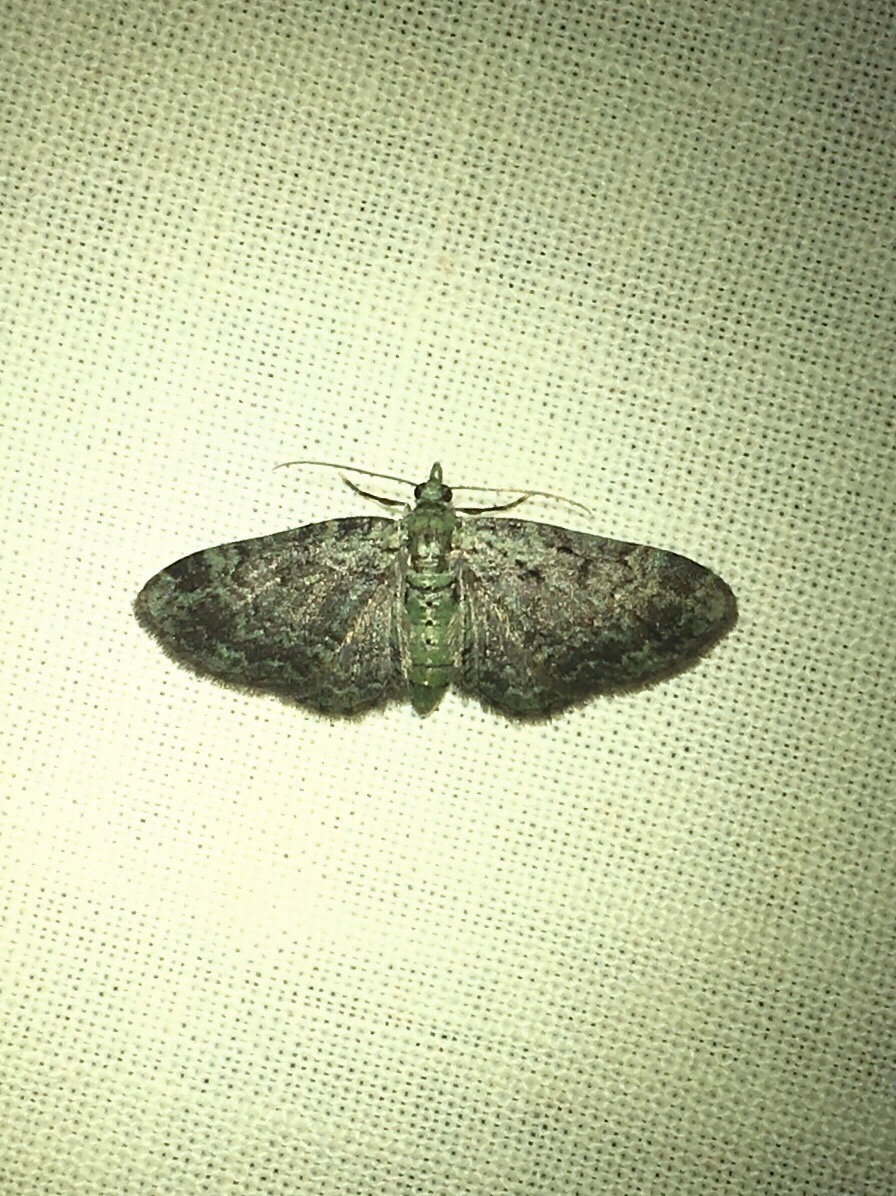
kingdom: Animalia
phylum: Arthropoda
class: Insecta
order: Lepidoptera
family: Geometridae
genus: Pasiphila
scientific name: Pasiphila rectangulata
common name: Green pug
